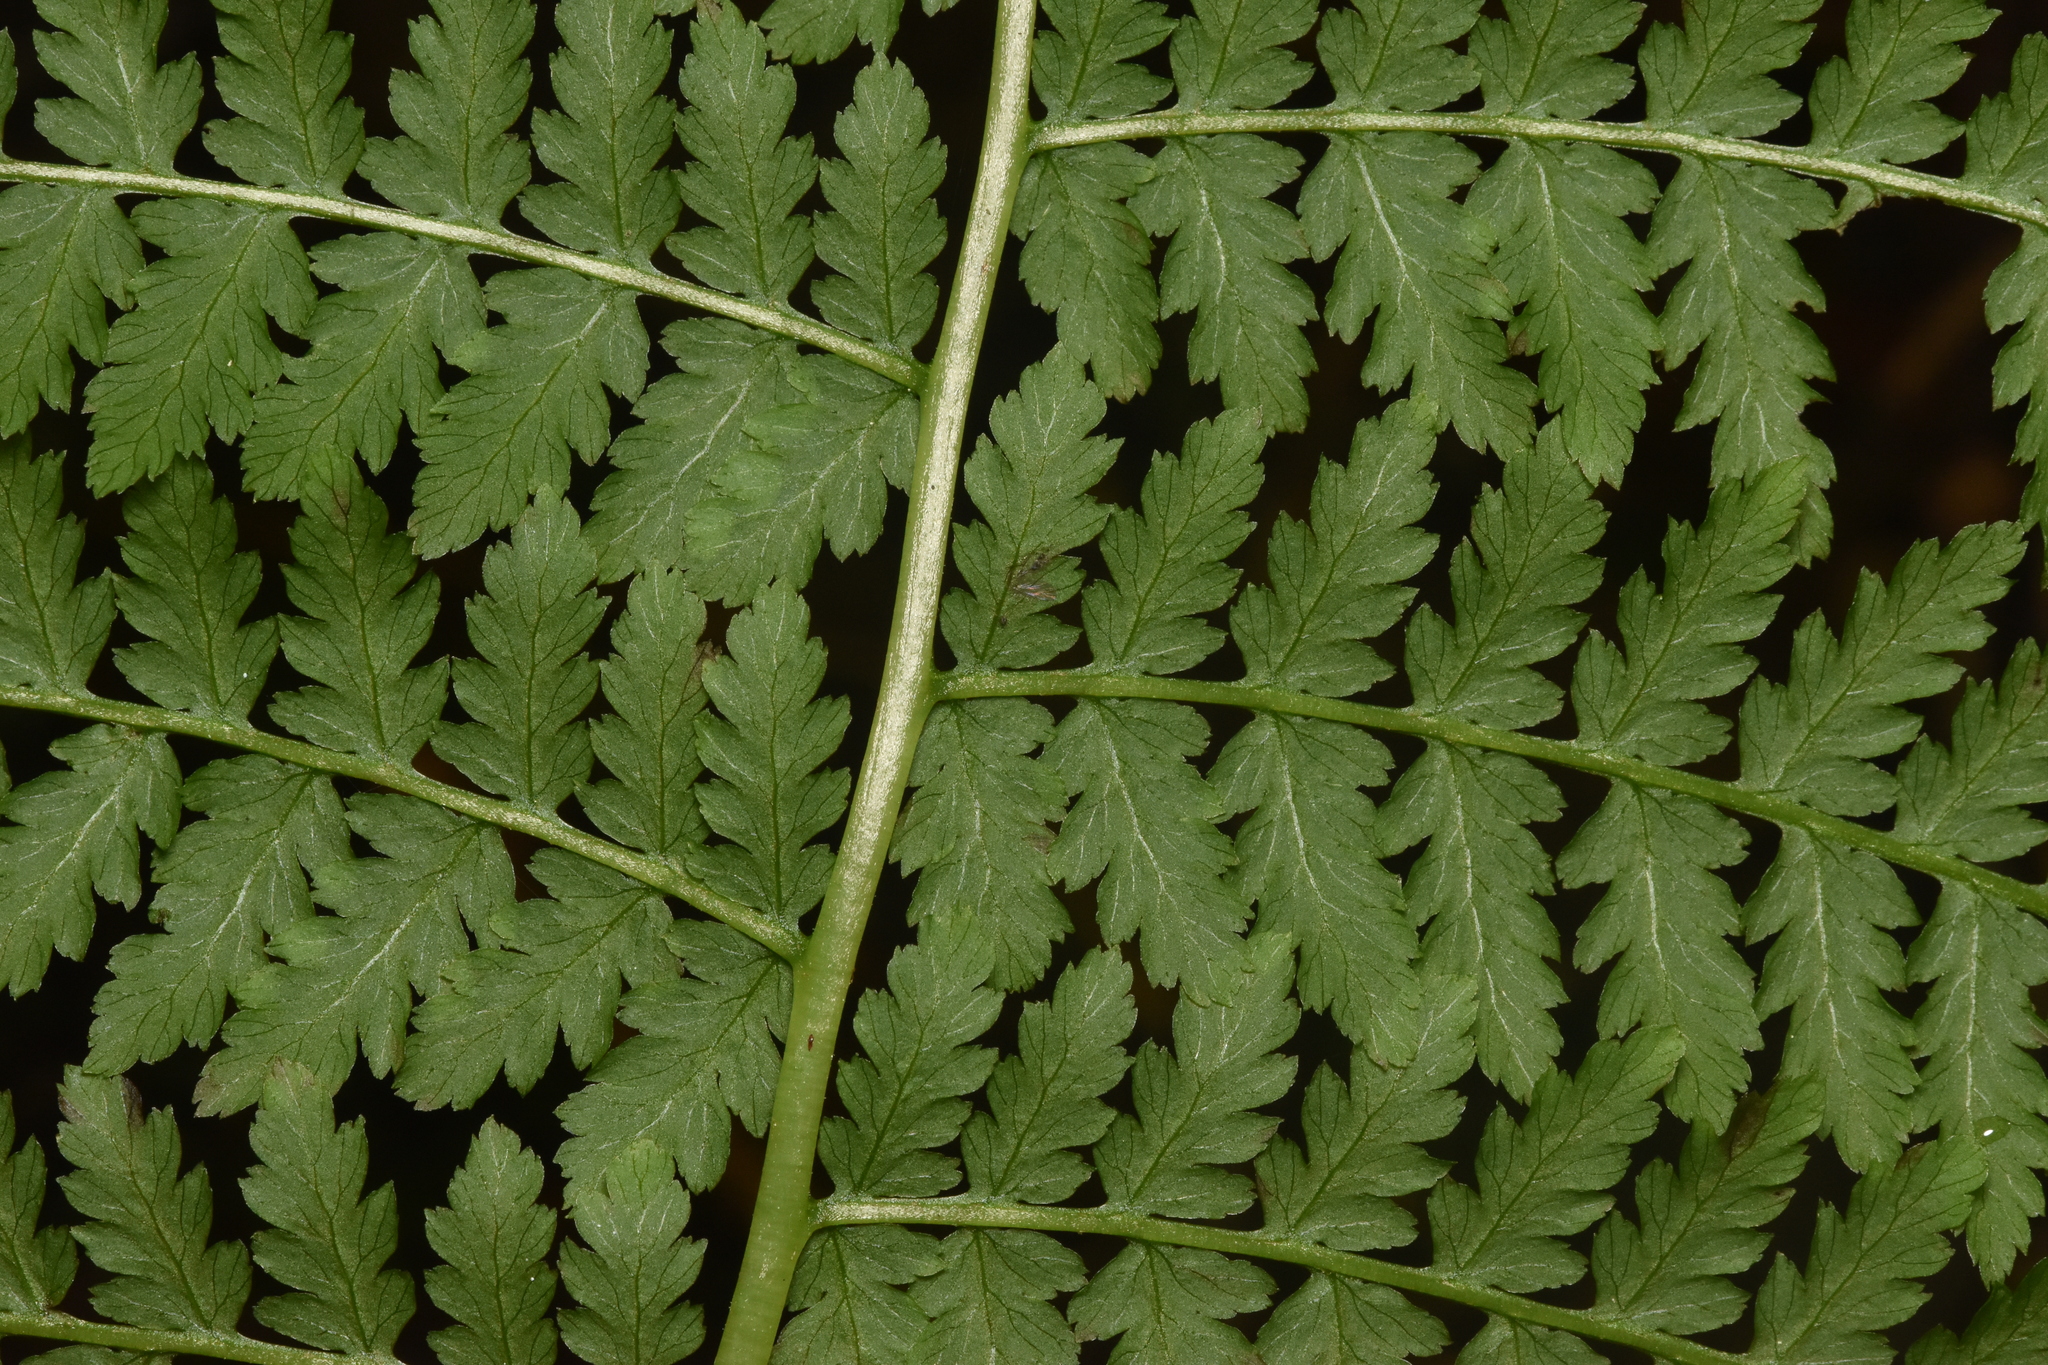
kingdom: Plantae
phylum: Tracheophyta
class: Polypodiopsida
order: Polypodiales
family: Athyriaceae
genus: Athyrium
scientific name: Athyrium filix-femina
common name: Lady fern
